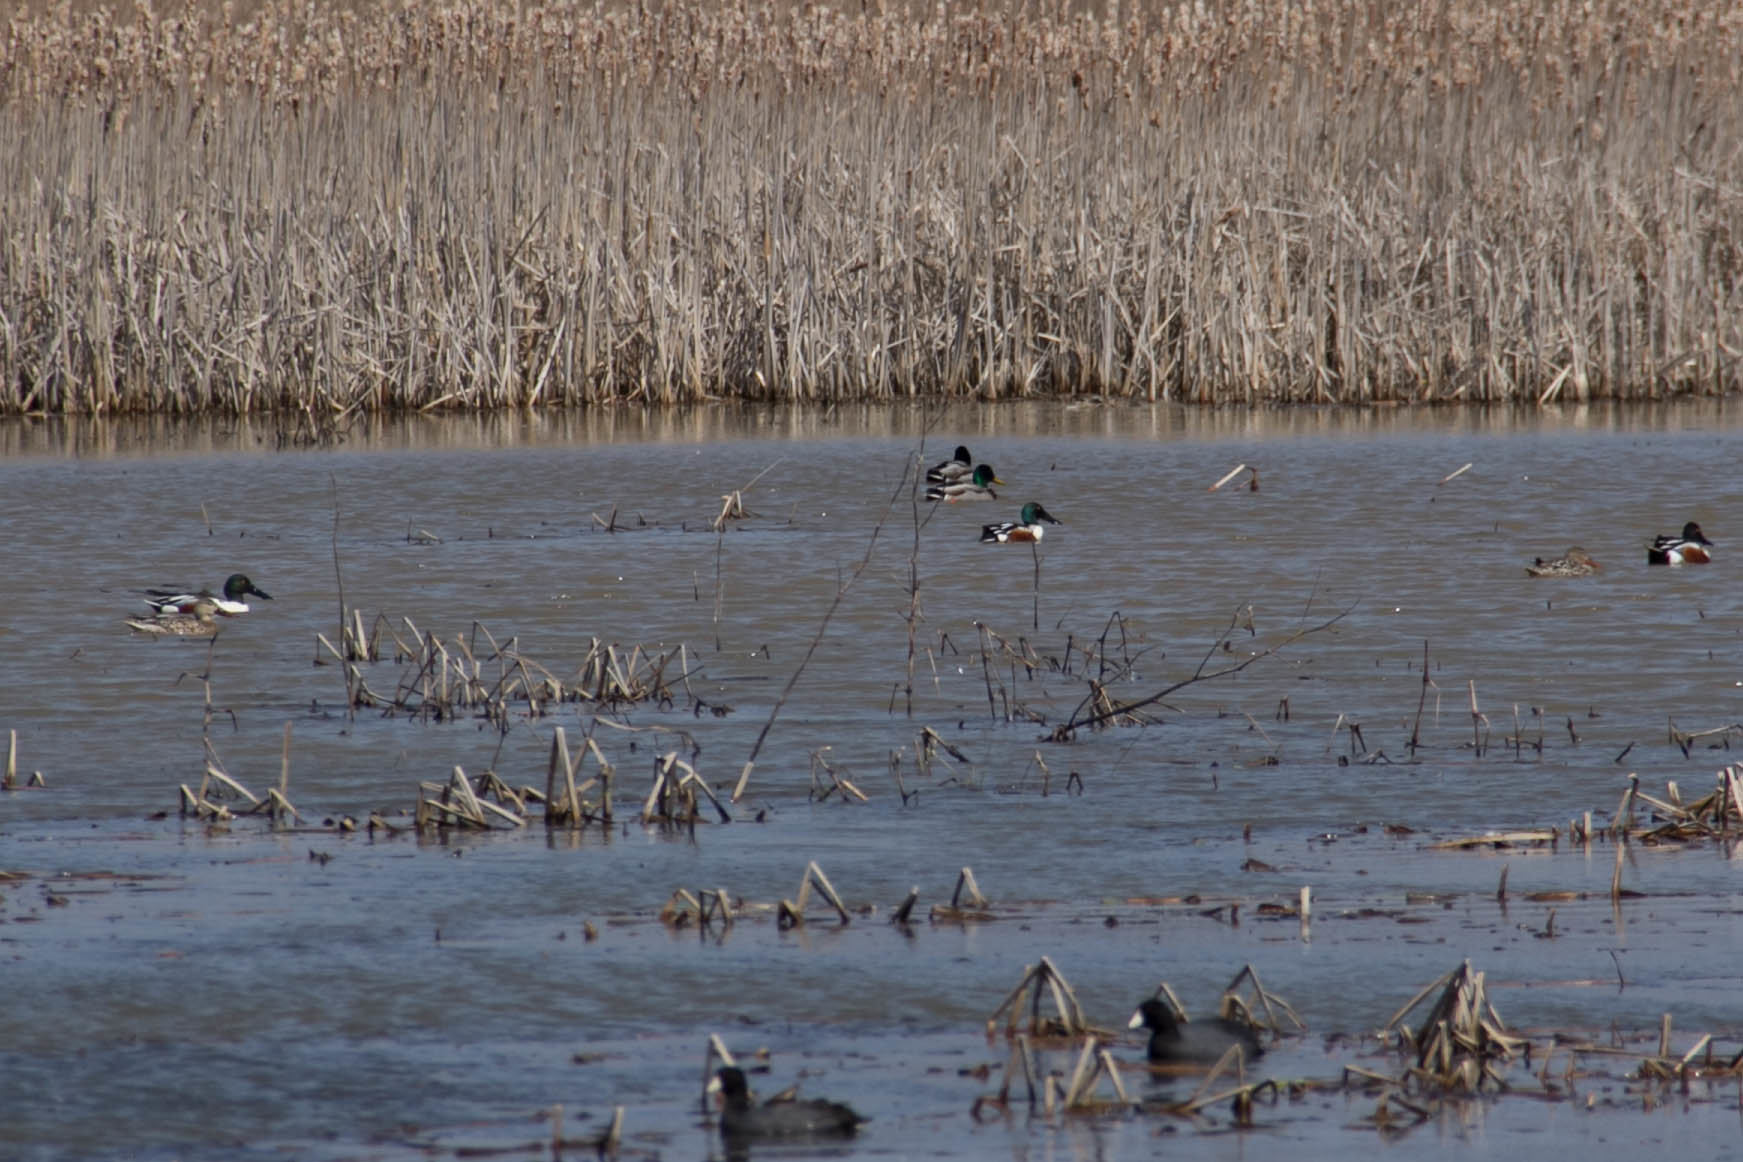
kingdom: Animalia
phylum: Chordata
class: Aves
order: Gruiformes
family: Rallidae
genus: Fulica
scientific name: Fulica americana
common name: American coot
